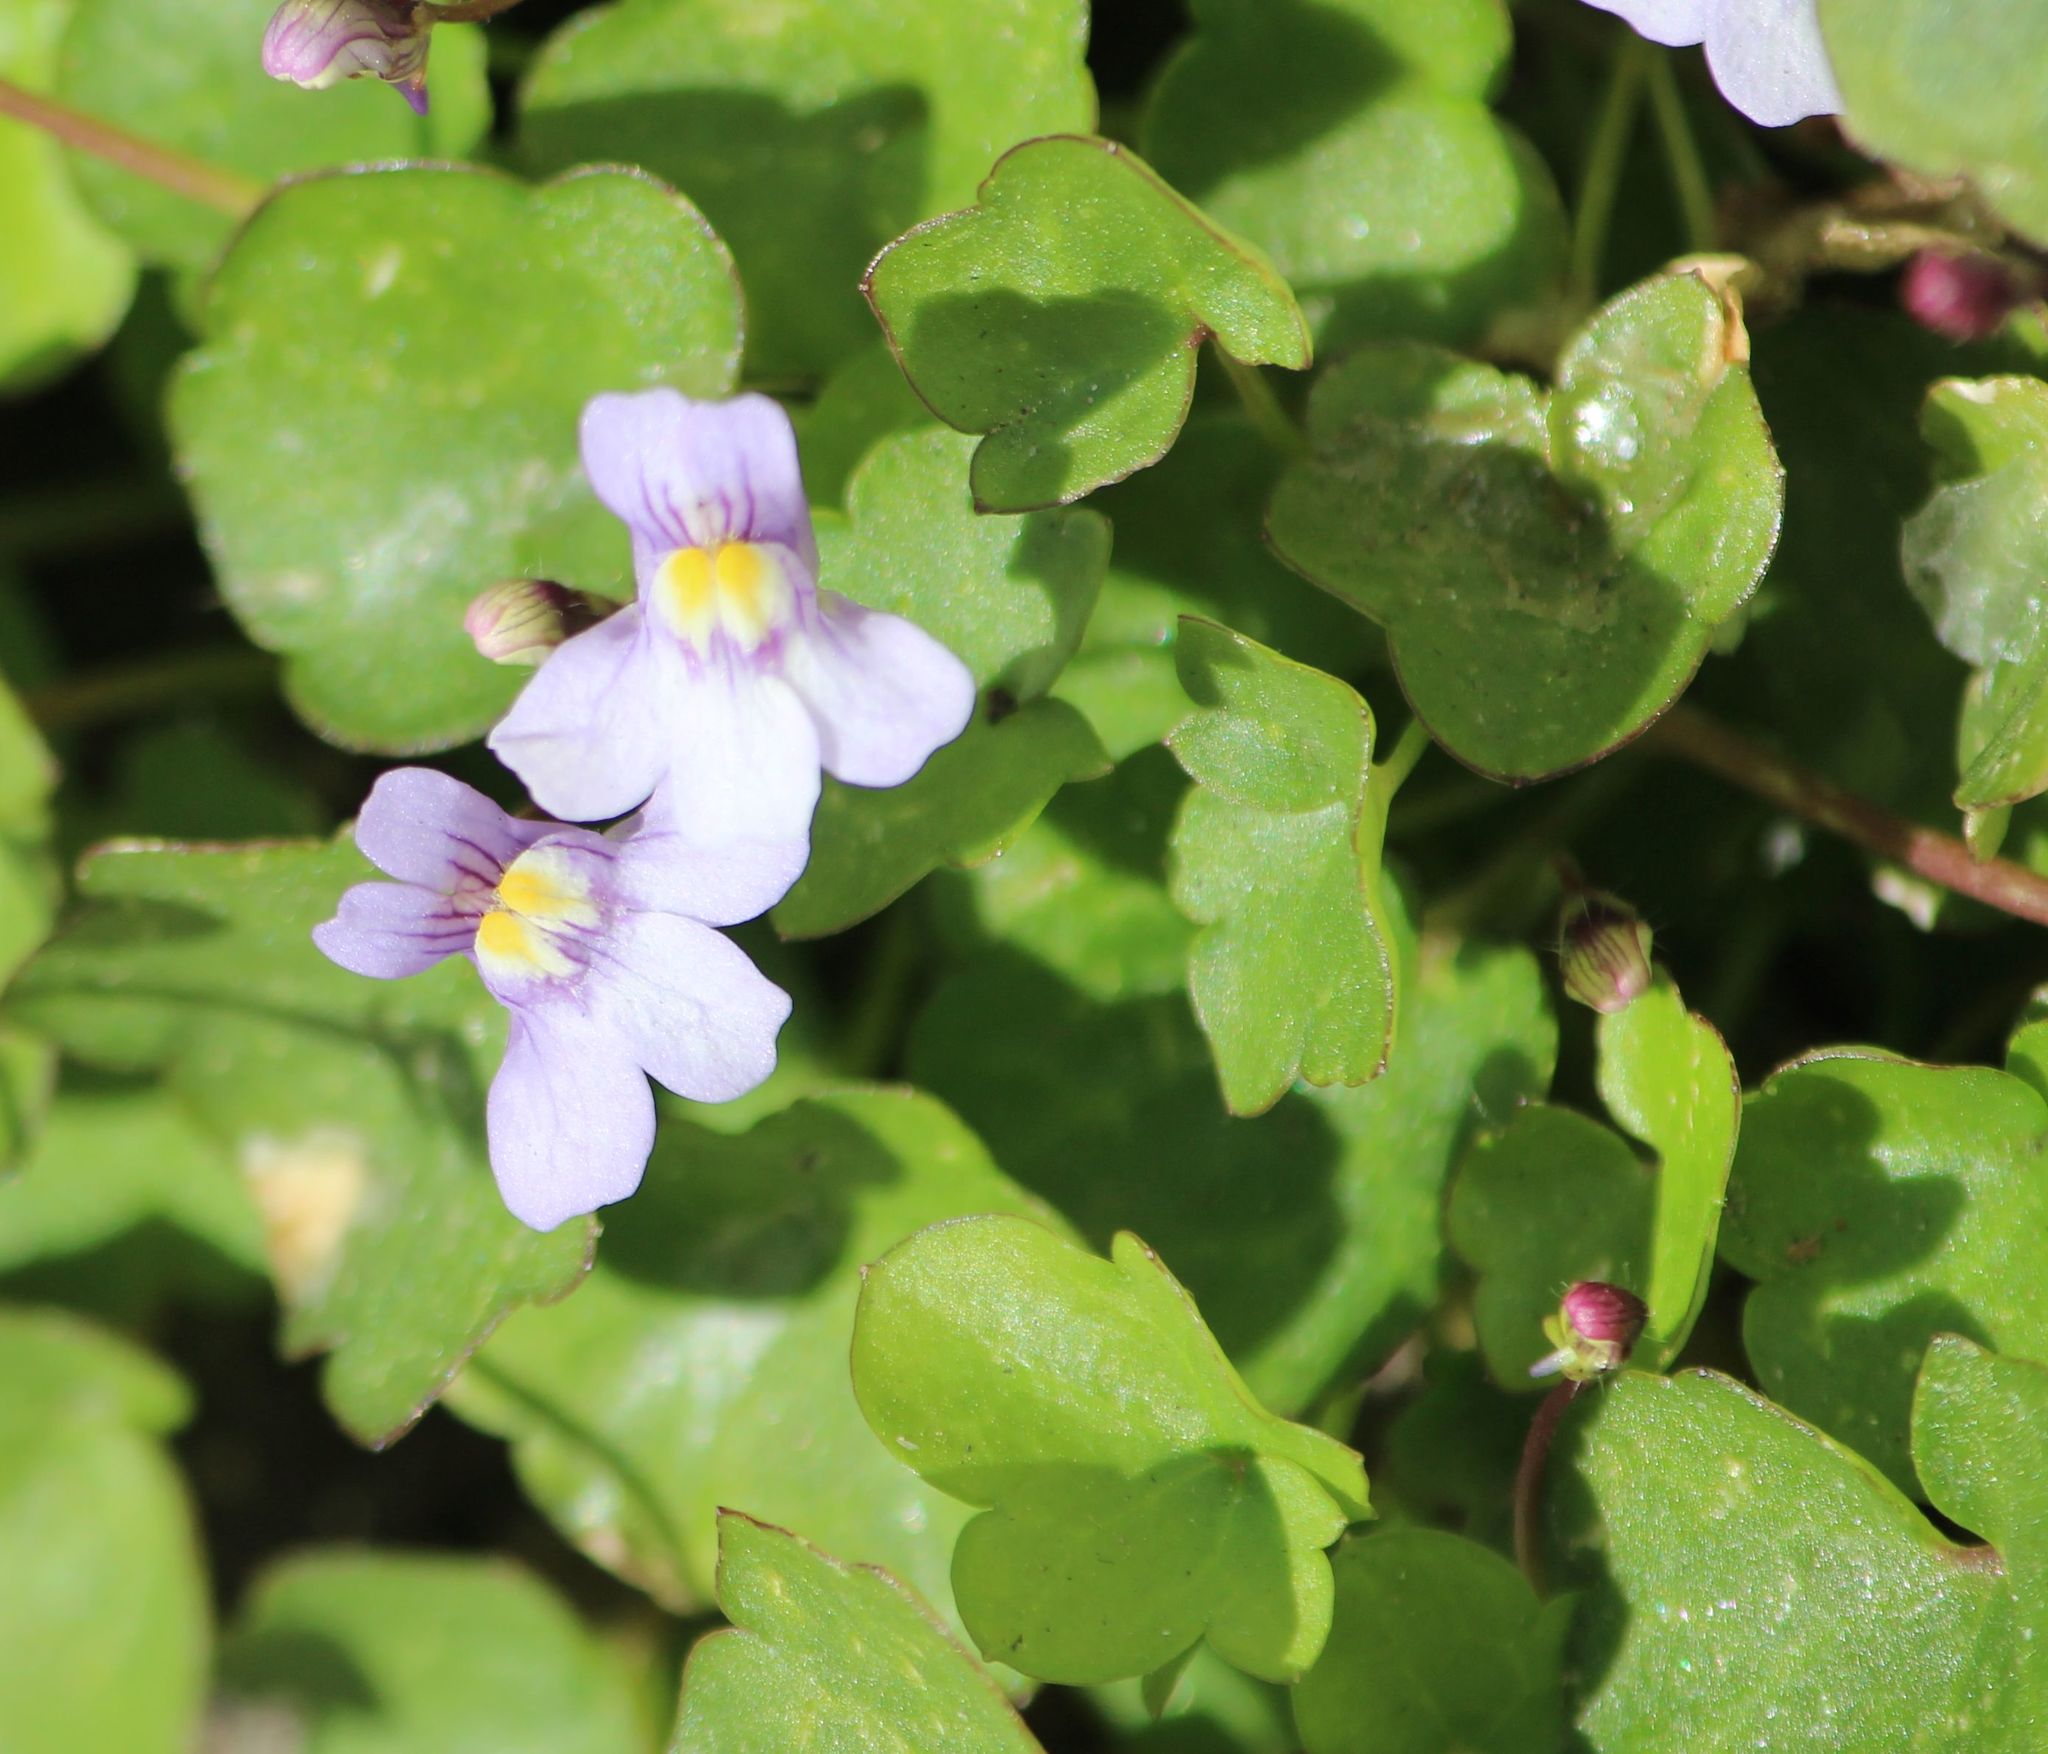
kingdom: Plantae
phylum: Tracheophyta
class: Magnoliopsida
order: Lamiales
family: Plantaginaceae
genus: Cymbalaria
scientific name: Cymbalaria muralis
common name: Ivy-leaved toadflax
